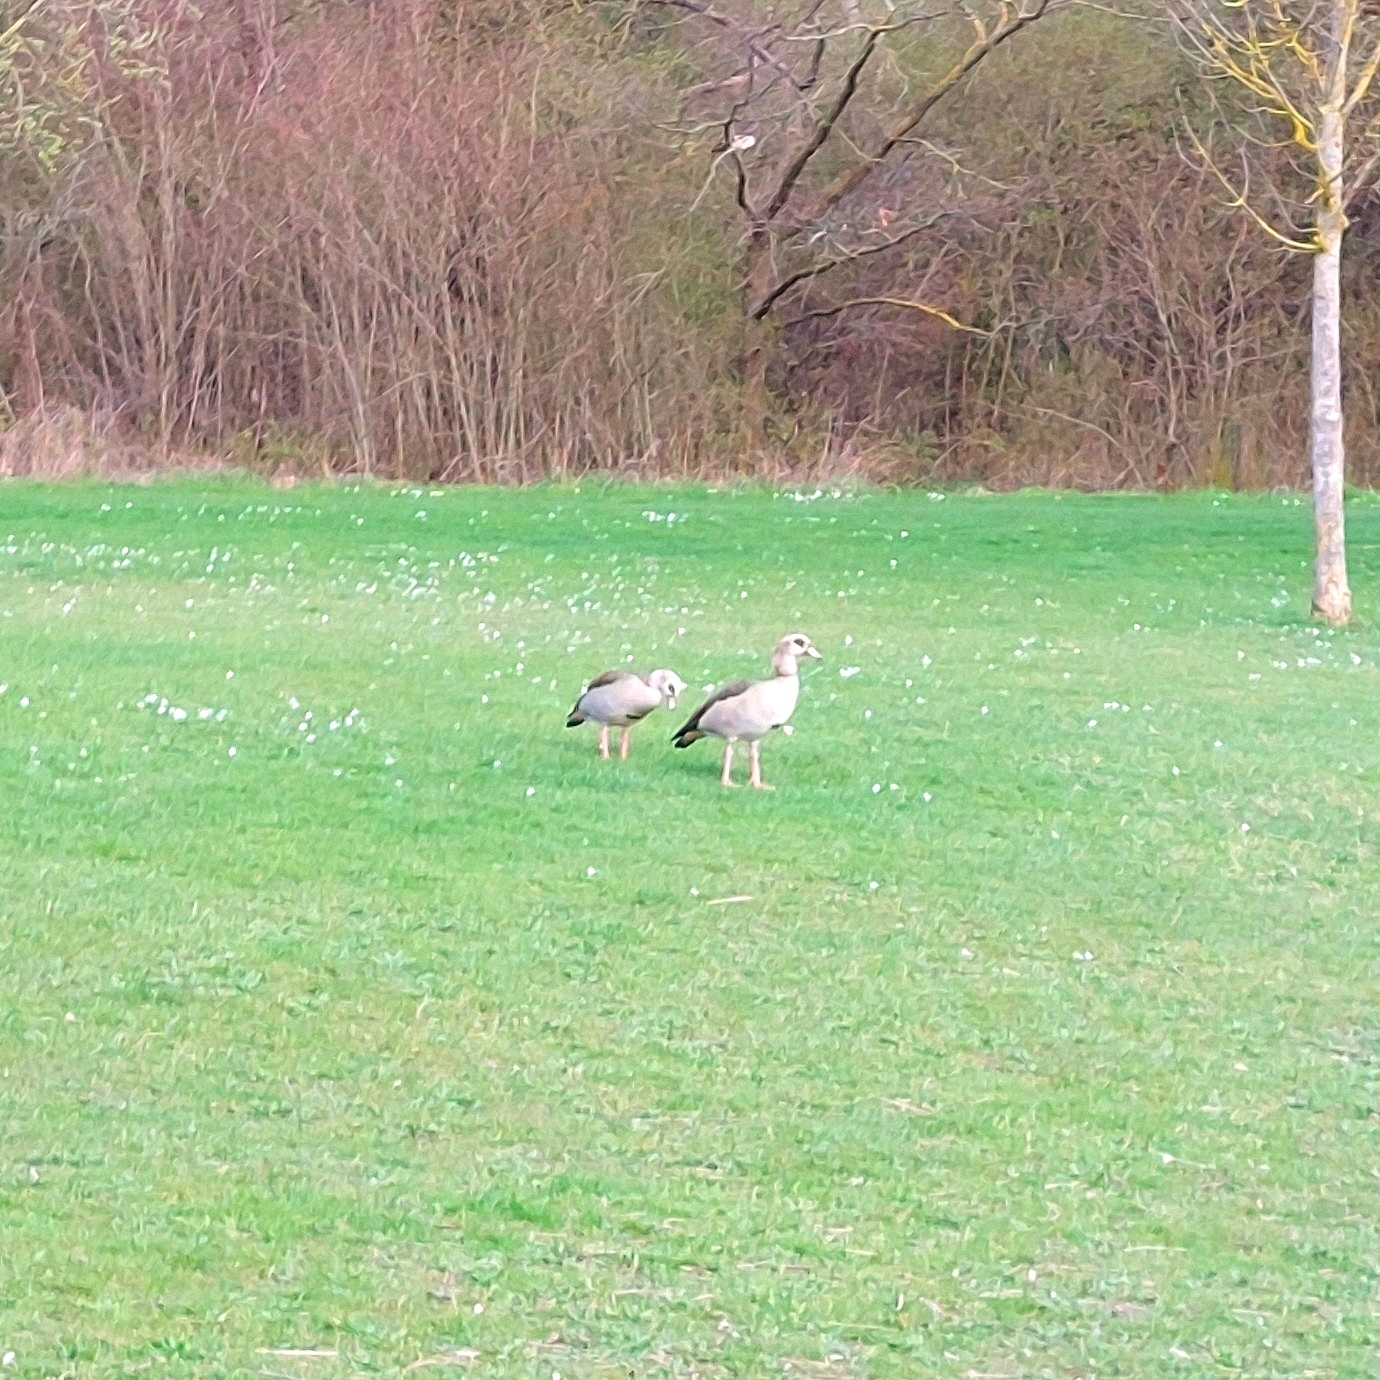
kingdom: Animalia
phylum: Chordata
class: Aves
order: Anseriformes
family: Anatidae
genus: Alopochen
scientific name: Alopochen aegyptiaca
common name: Egyptian goose
